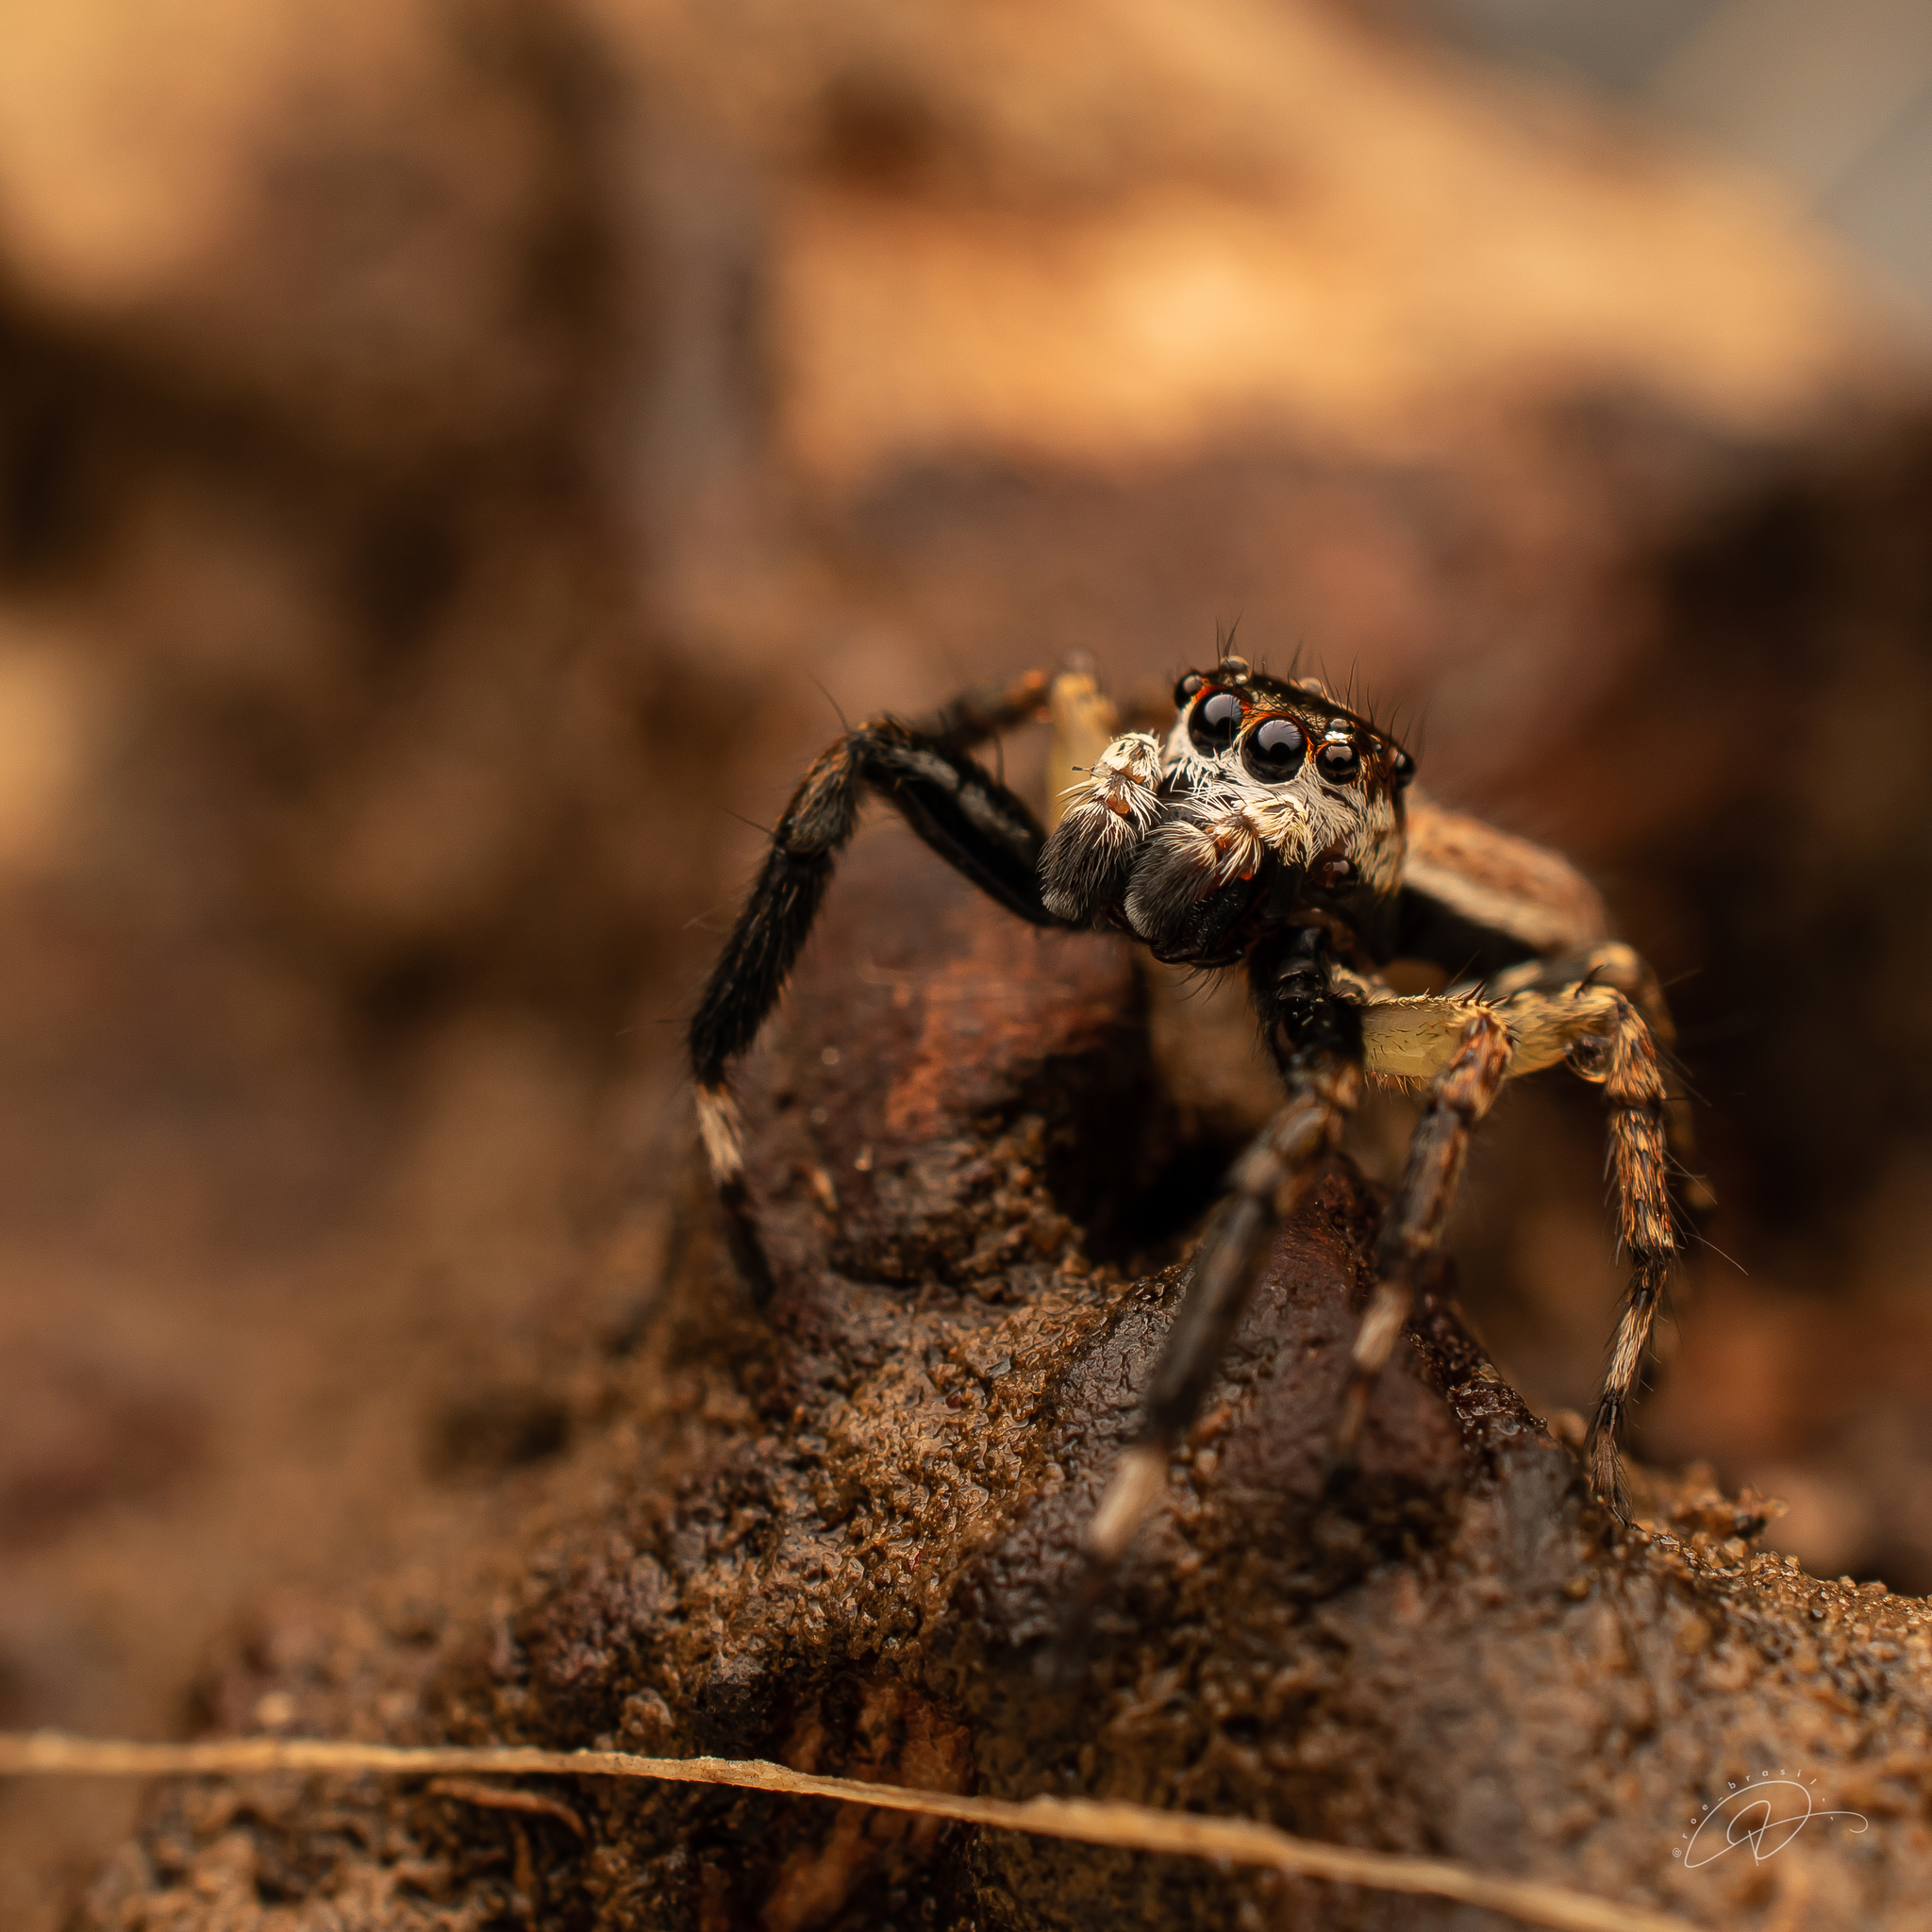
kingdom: Animalia
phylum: Arthropoda
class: Arachnida
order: Araneae
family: Salticidae
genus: Asaphobelis
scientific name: Asaphobelis physonychus
